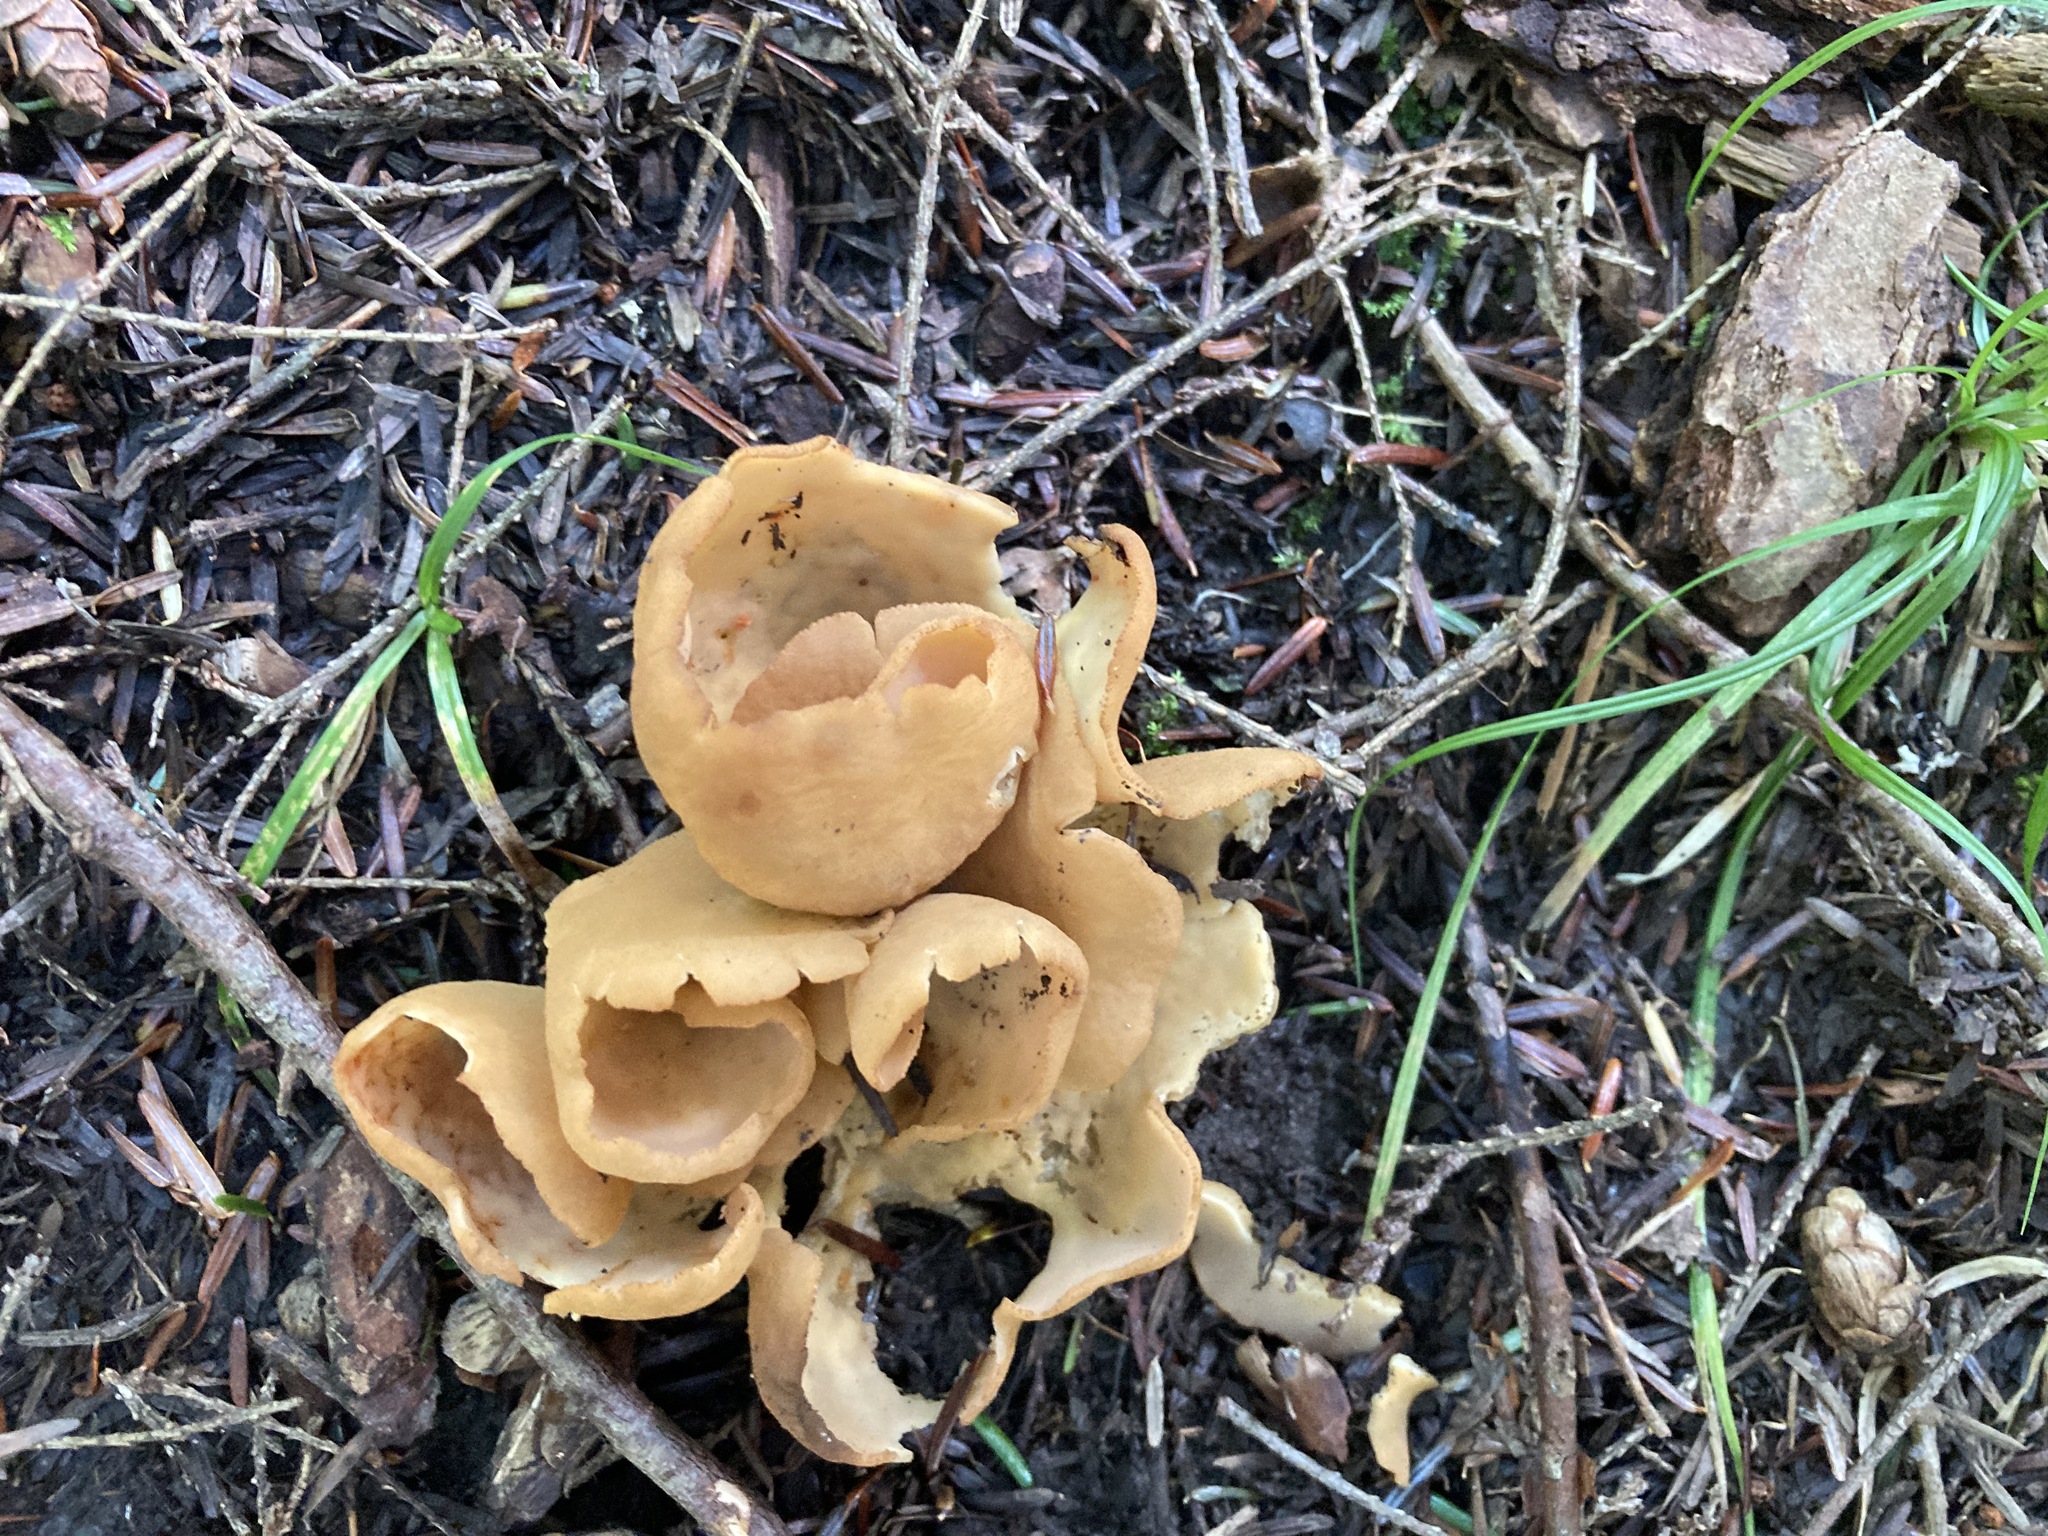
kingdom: Fungi
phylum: Ascomycota
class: Pezizomycetes
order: Pezizales
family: Otideaceae
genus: Otidea
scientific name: Otidea onotica
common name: Hare's ear
